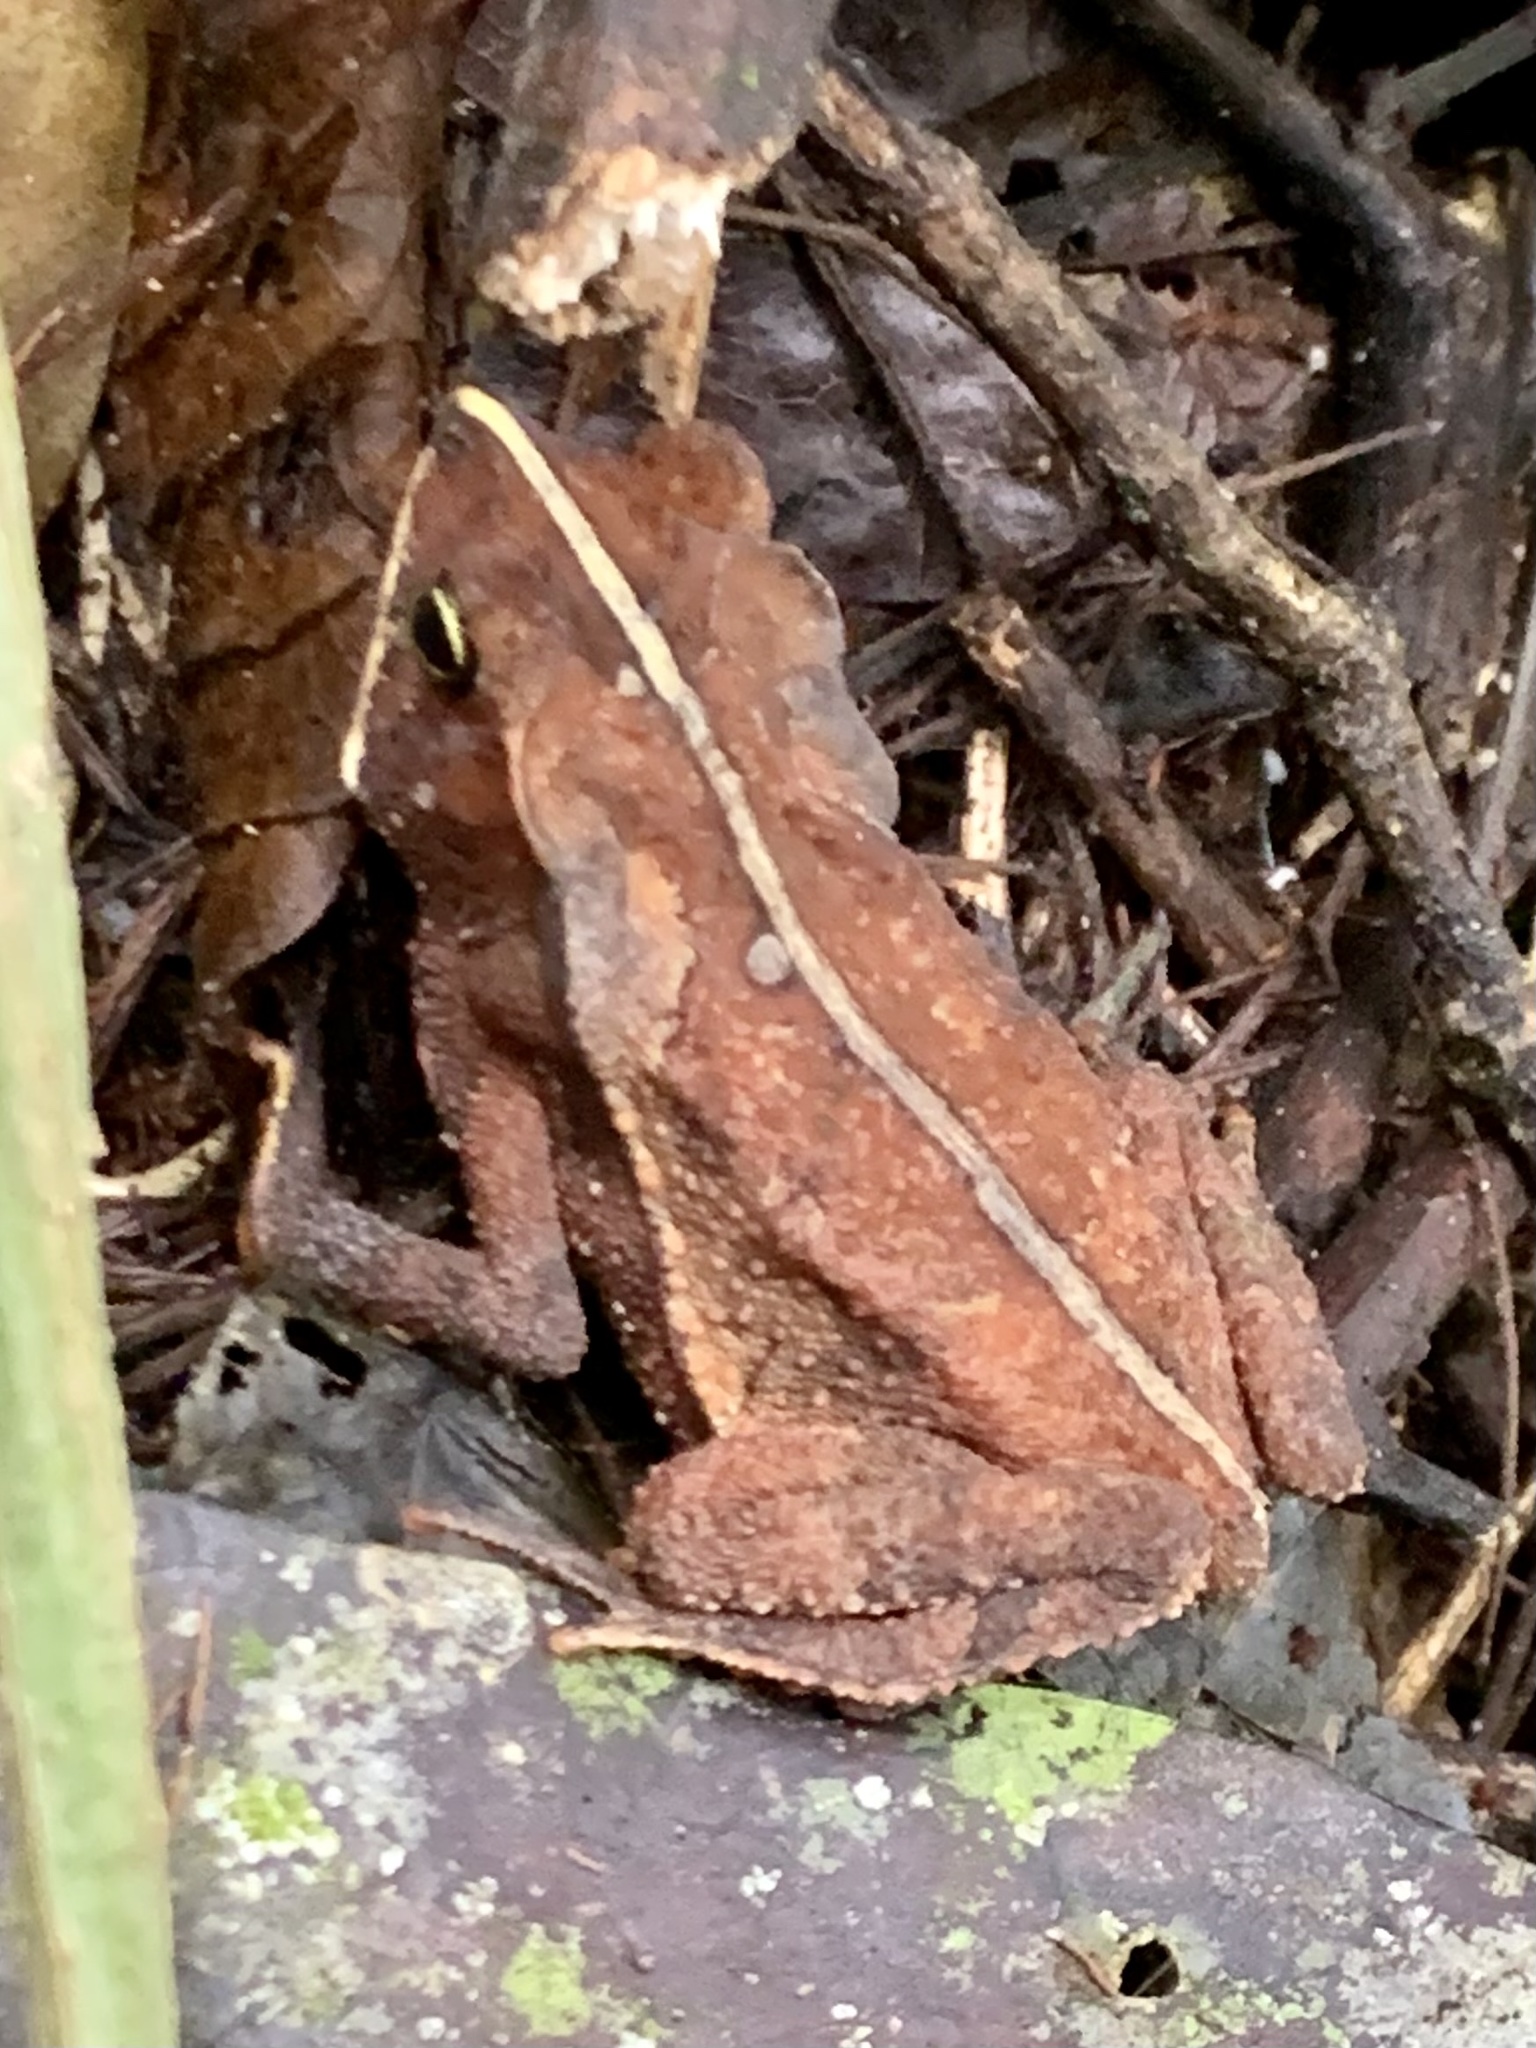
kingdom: Animalia
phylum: Chordata
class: Amphibia
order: Anura
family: Bufonidae
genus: Rhinella
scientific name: Rhinella alata
